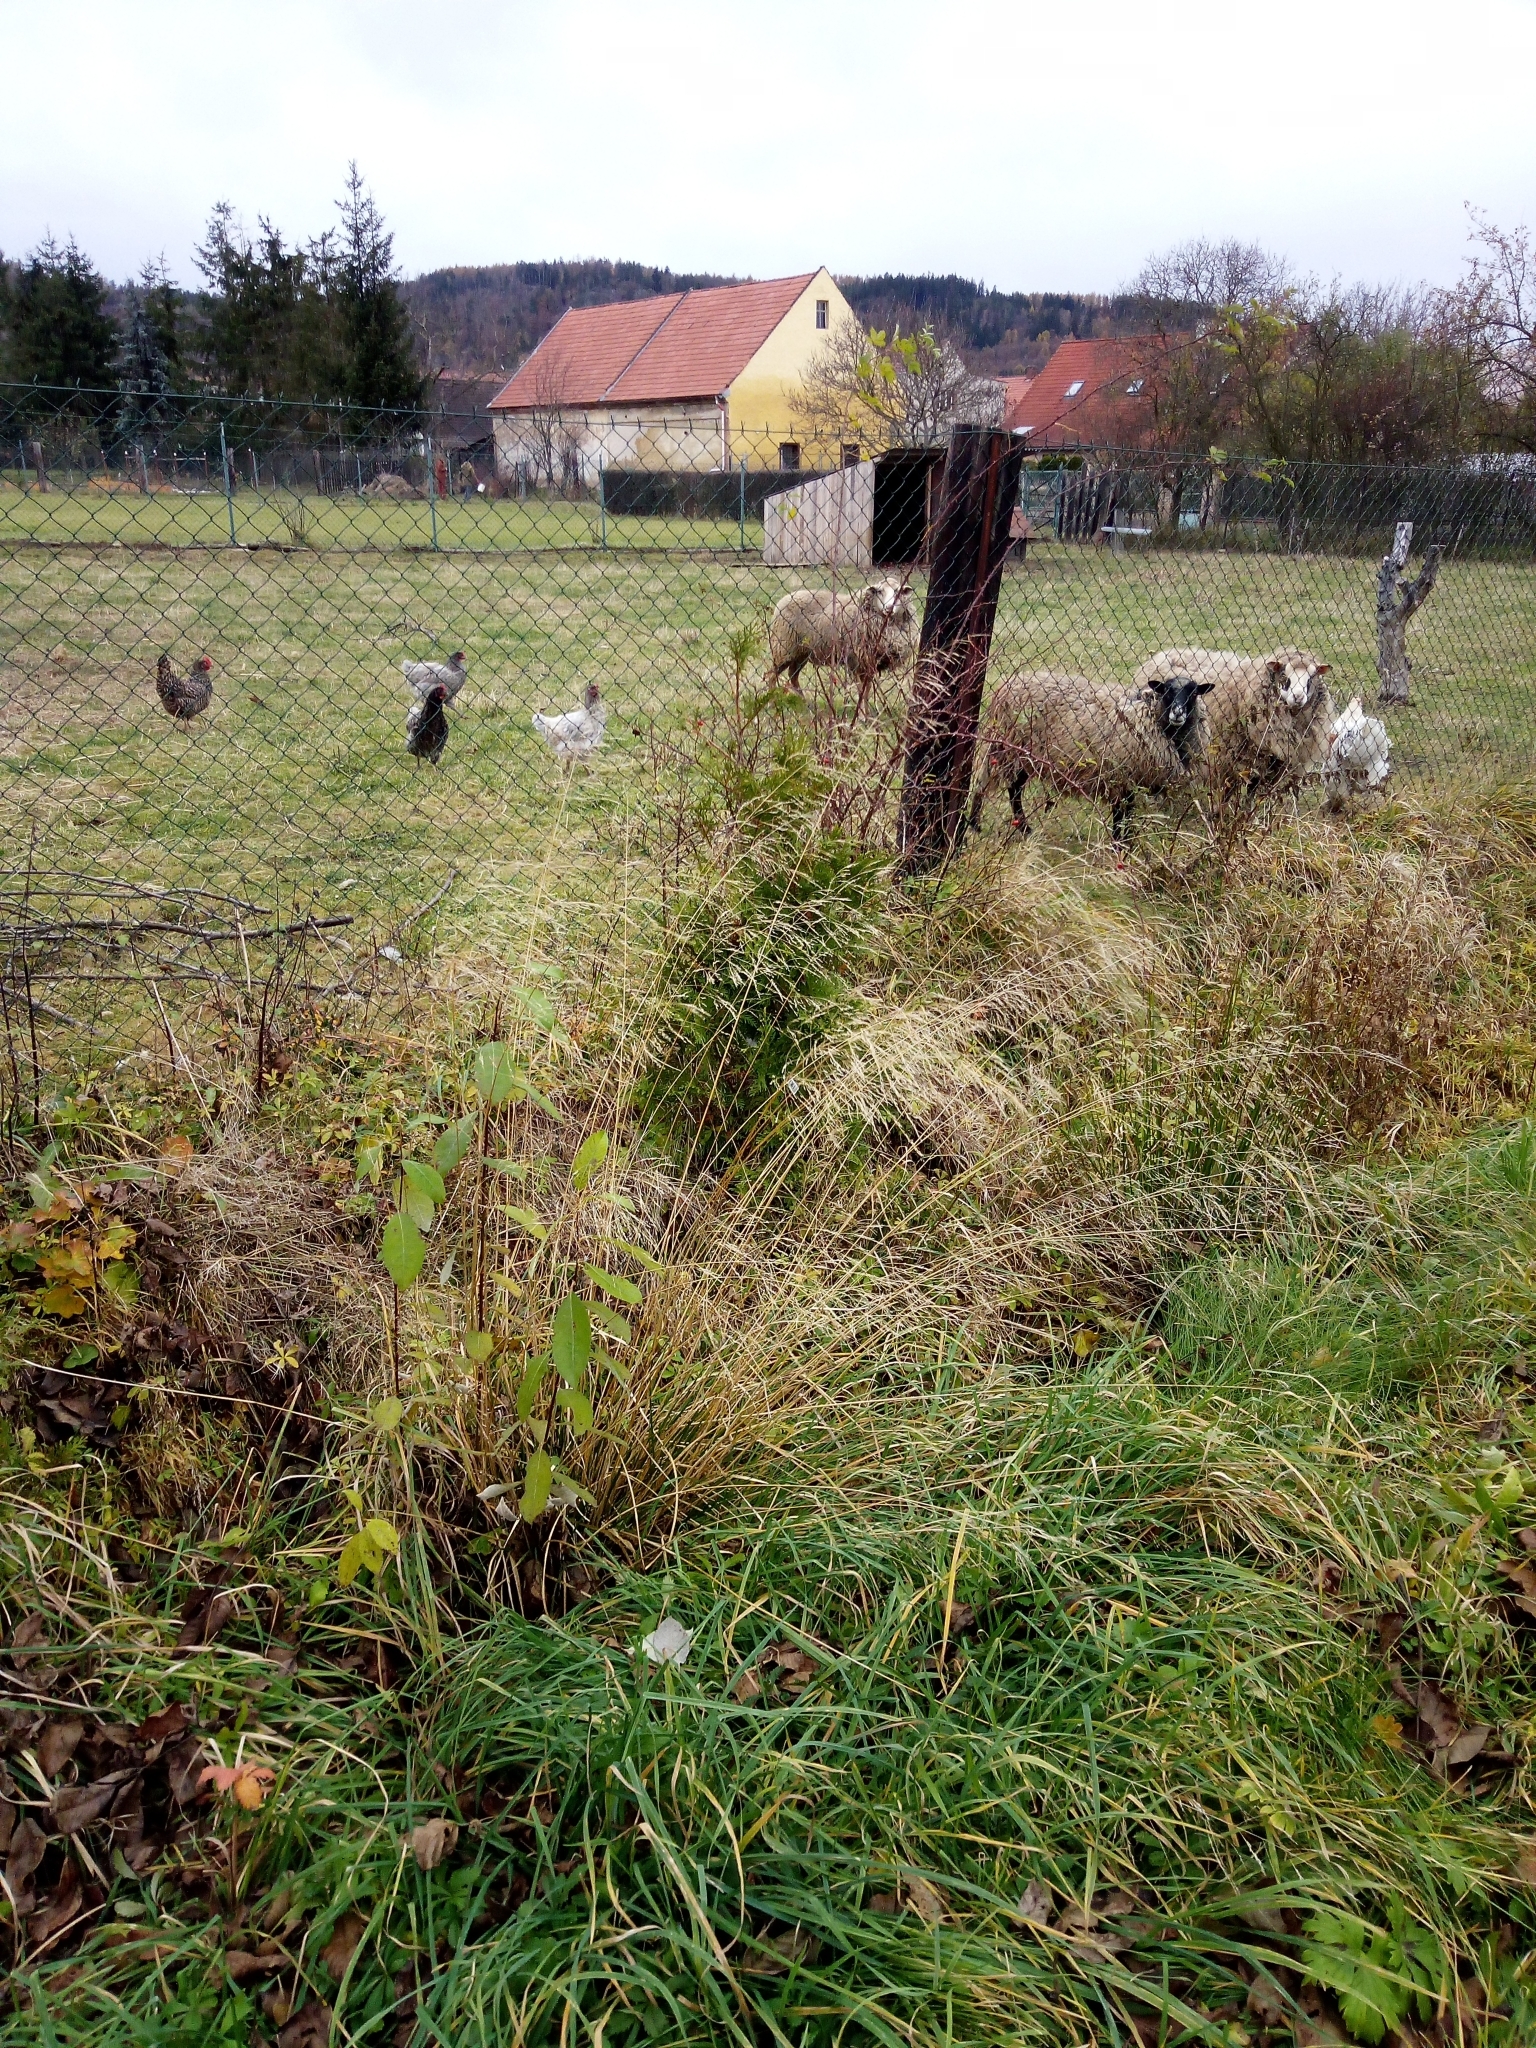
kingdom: Plantae
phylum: Tracheophyta
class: Liliopsida
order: Poales
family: Poaceae
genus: Deschampsia
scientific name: Deschampsia cespitosa
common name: Tufted hair-grass
